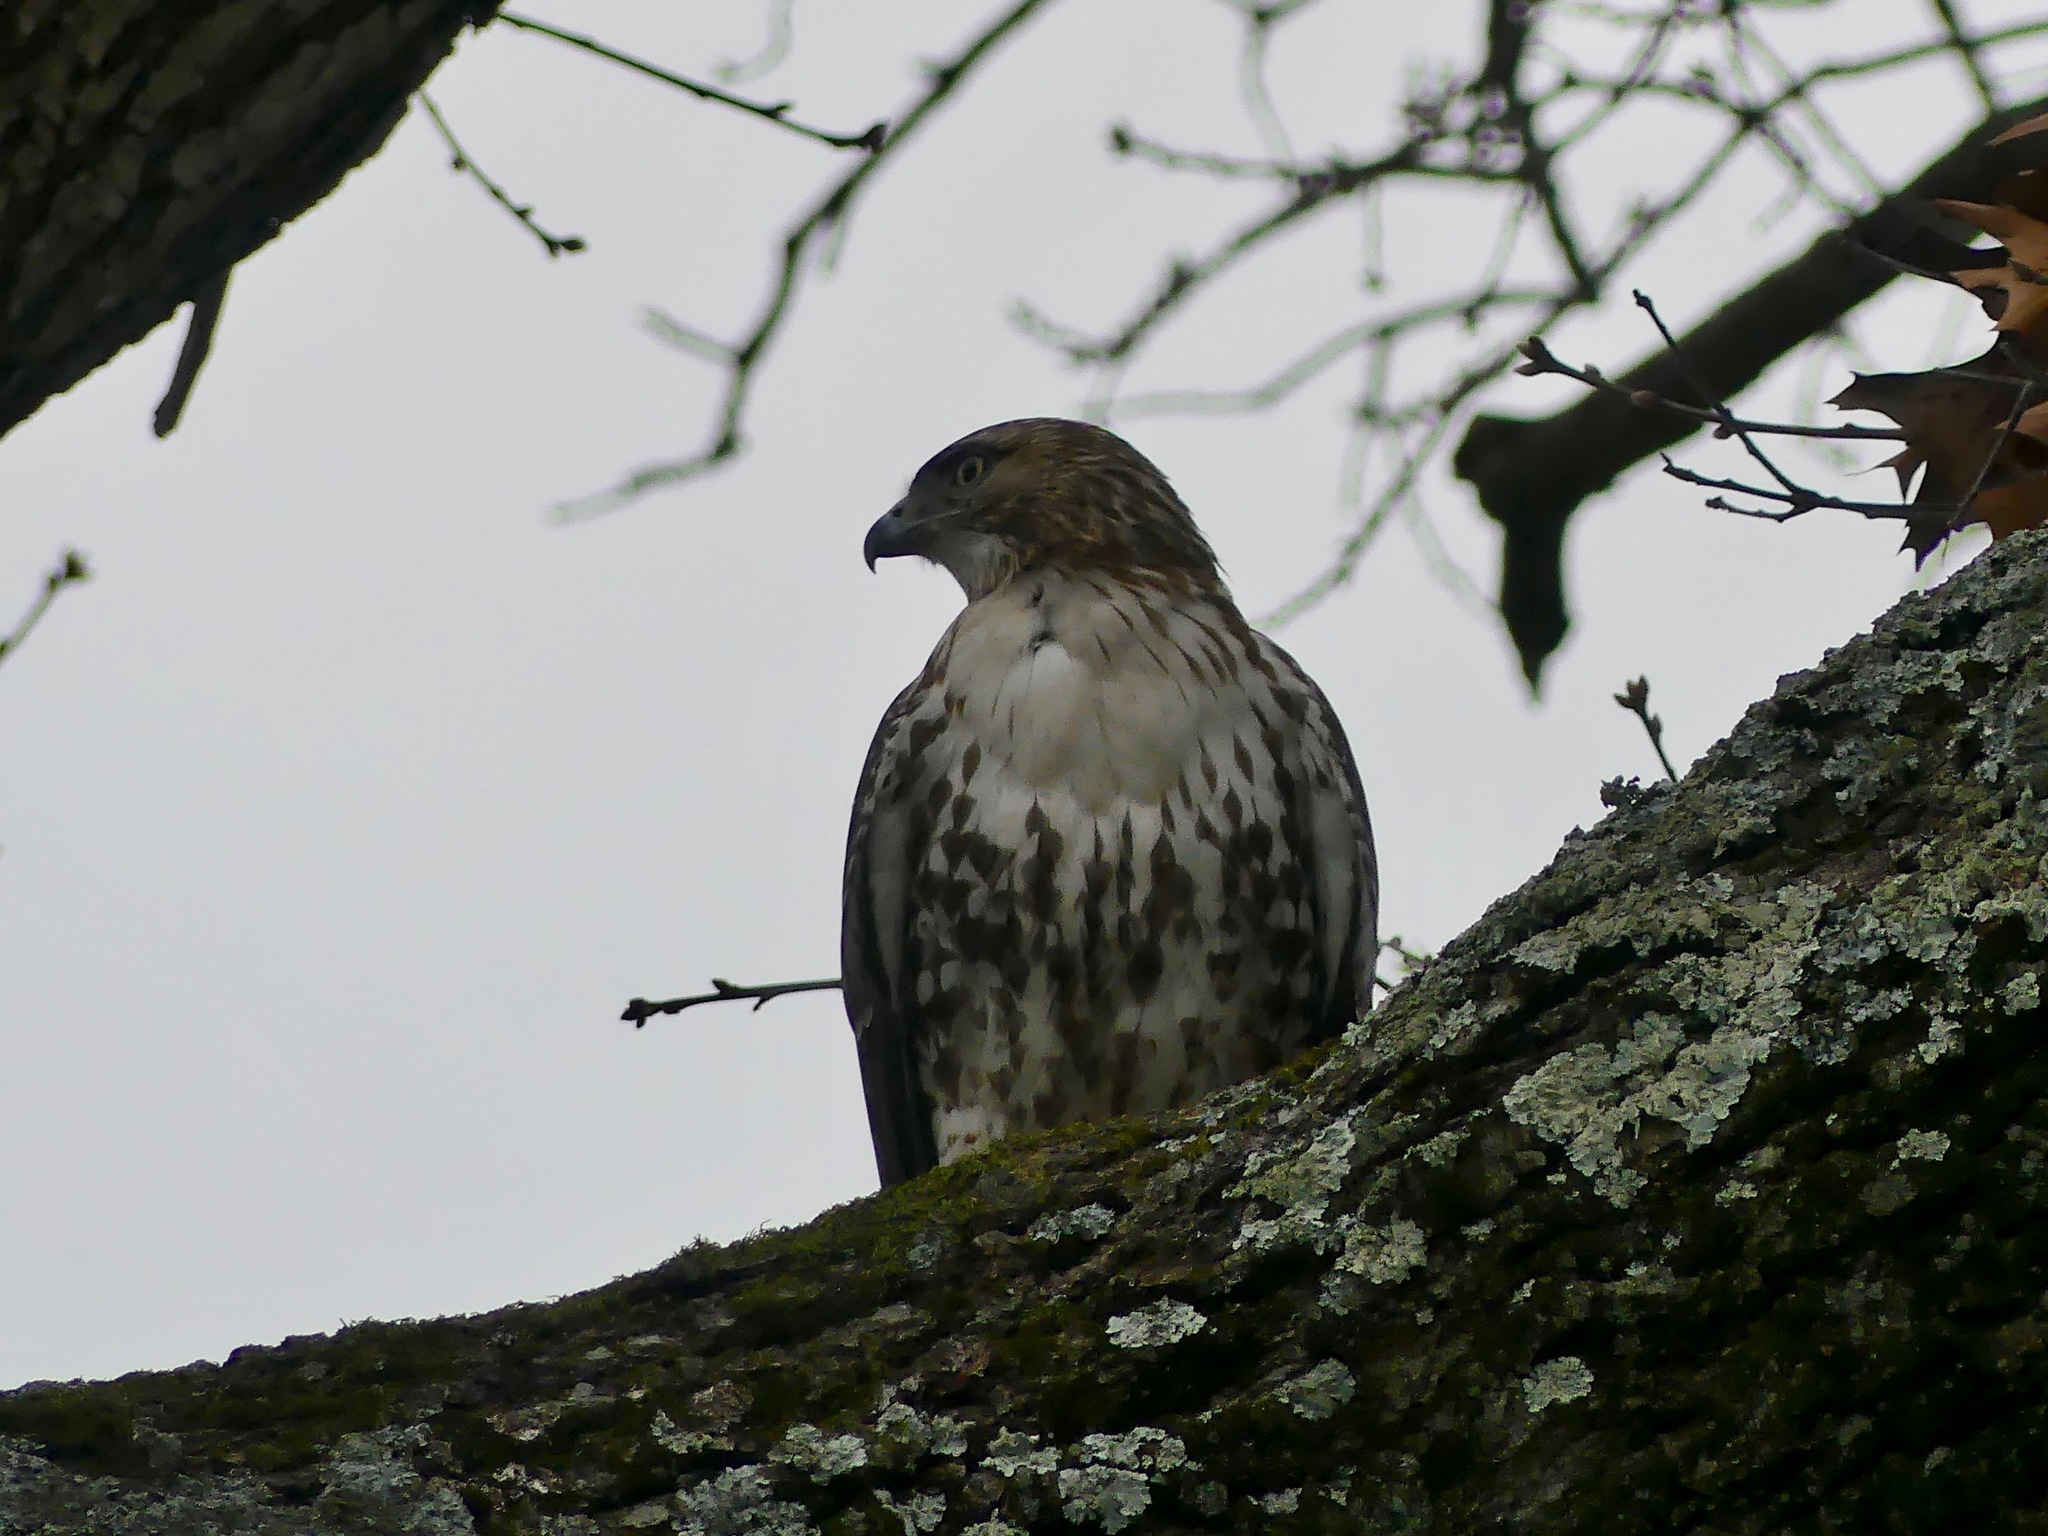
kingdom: Animalia
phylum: Chordata
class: Aves
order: Accipitriformes
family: Accipitridae
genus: Buteo
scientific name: Buteo jamaicensis
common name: Red-tailed hawk
